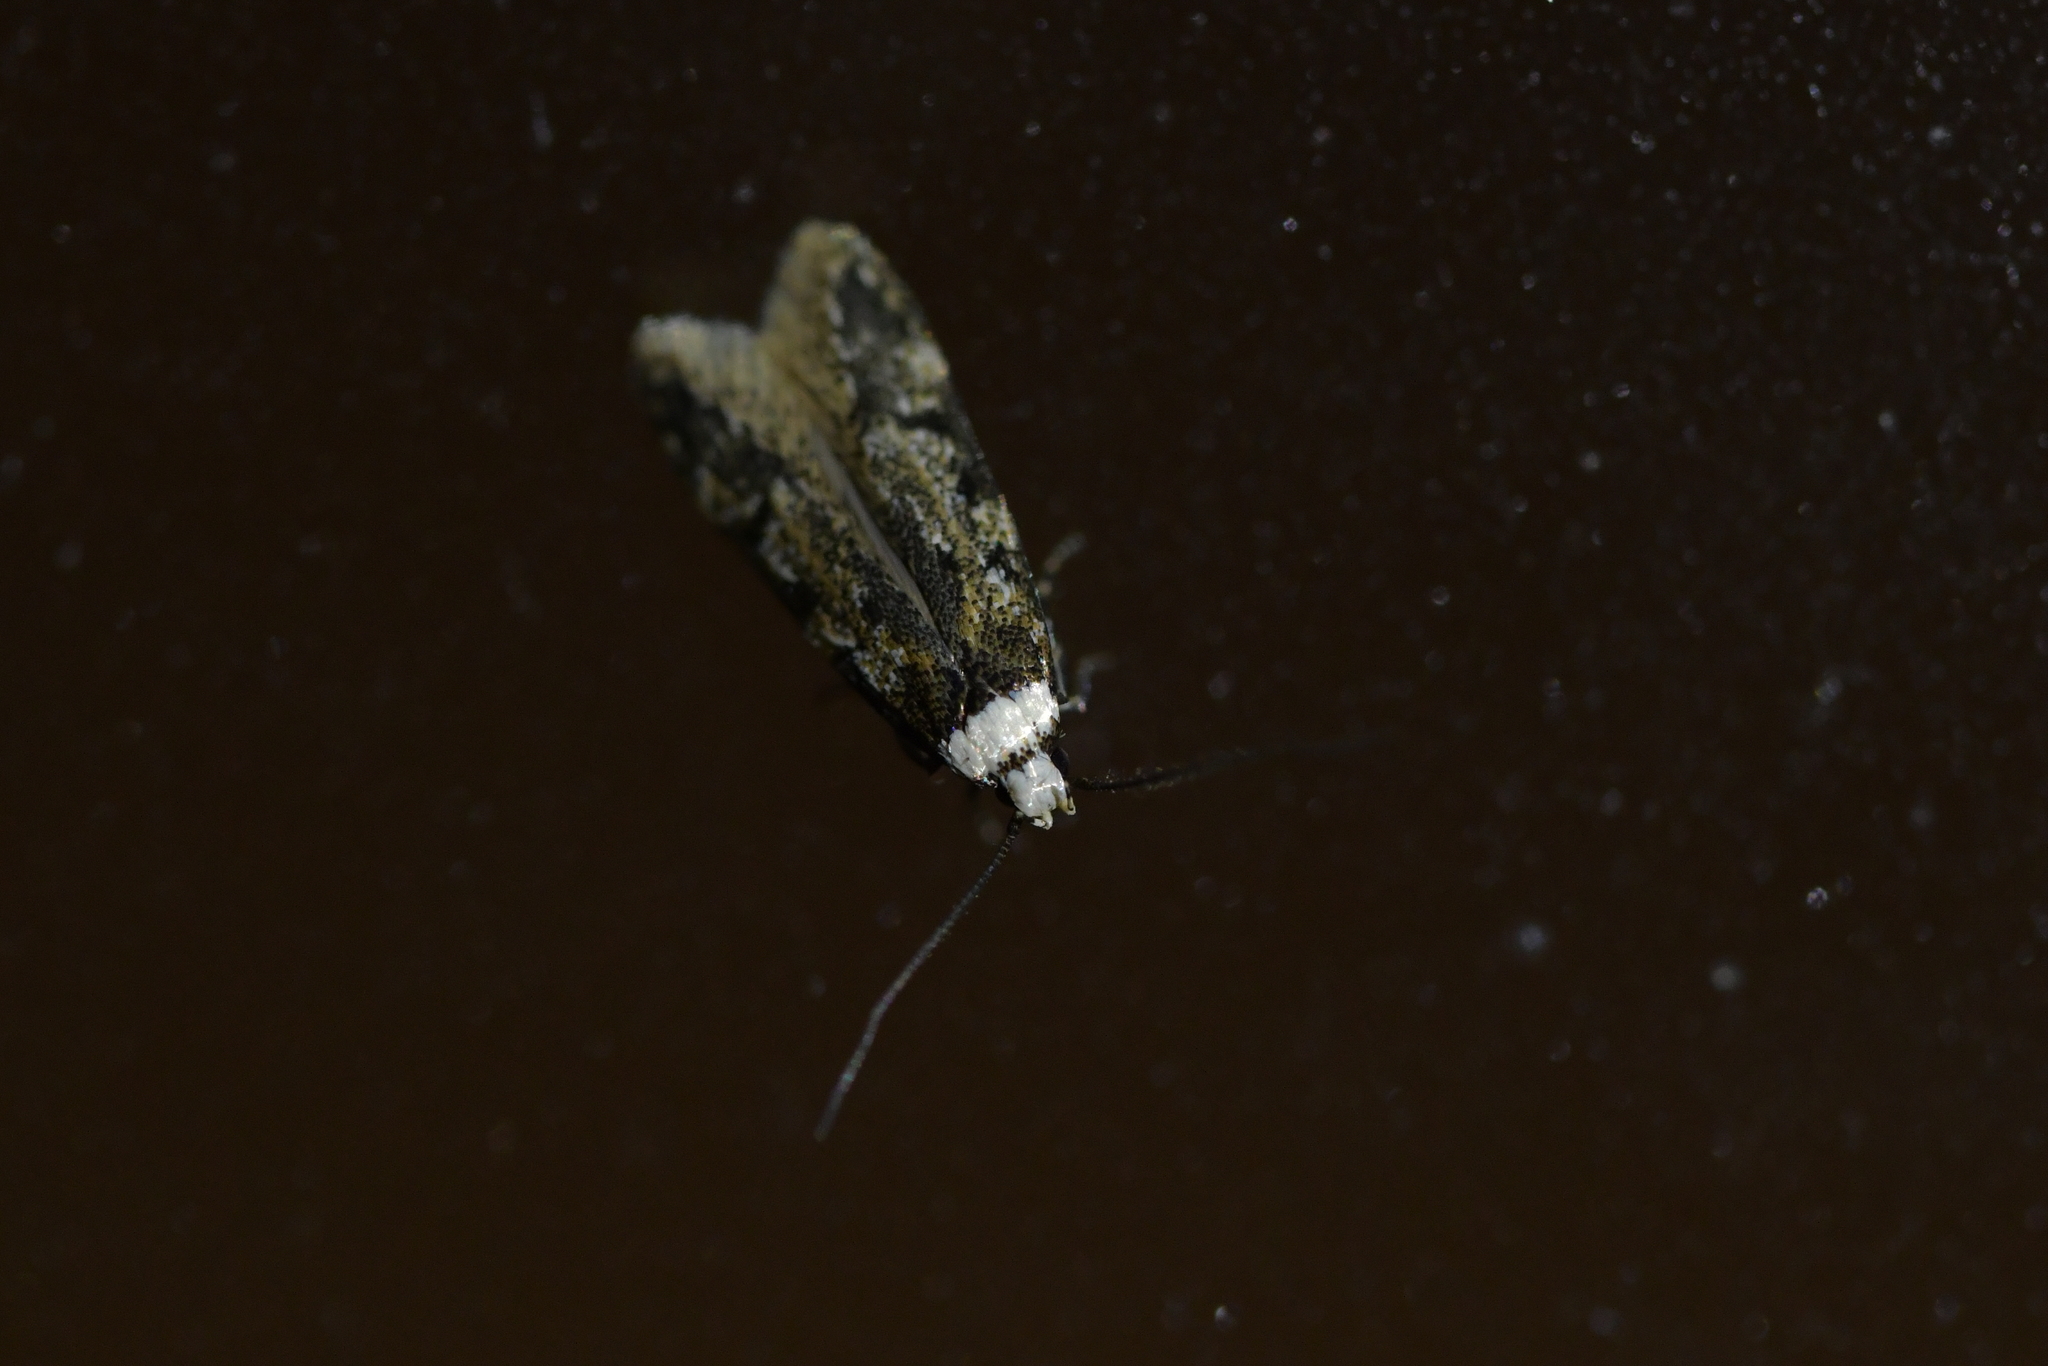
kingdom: Animalia
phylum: Arthropoda
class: Insecta
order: Lepidoptera
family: Oecophoridae
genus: Endrosis
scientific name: Endrosis sarcitrella
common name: White-shouldered house moth
